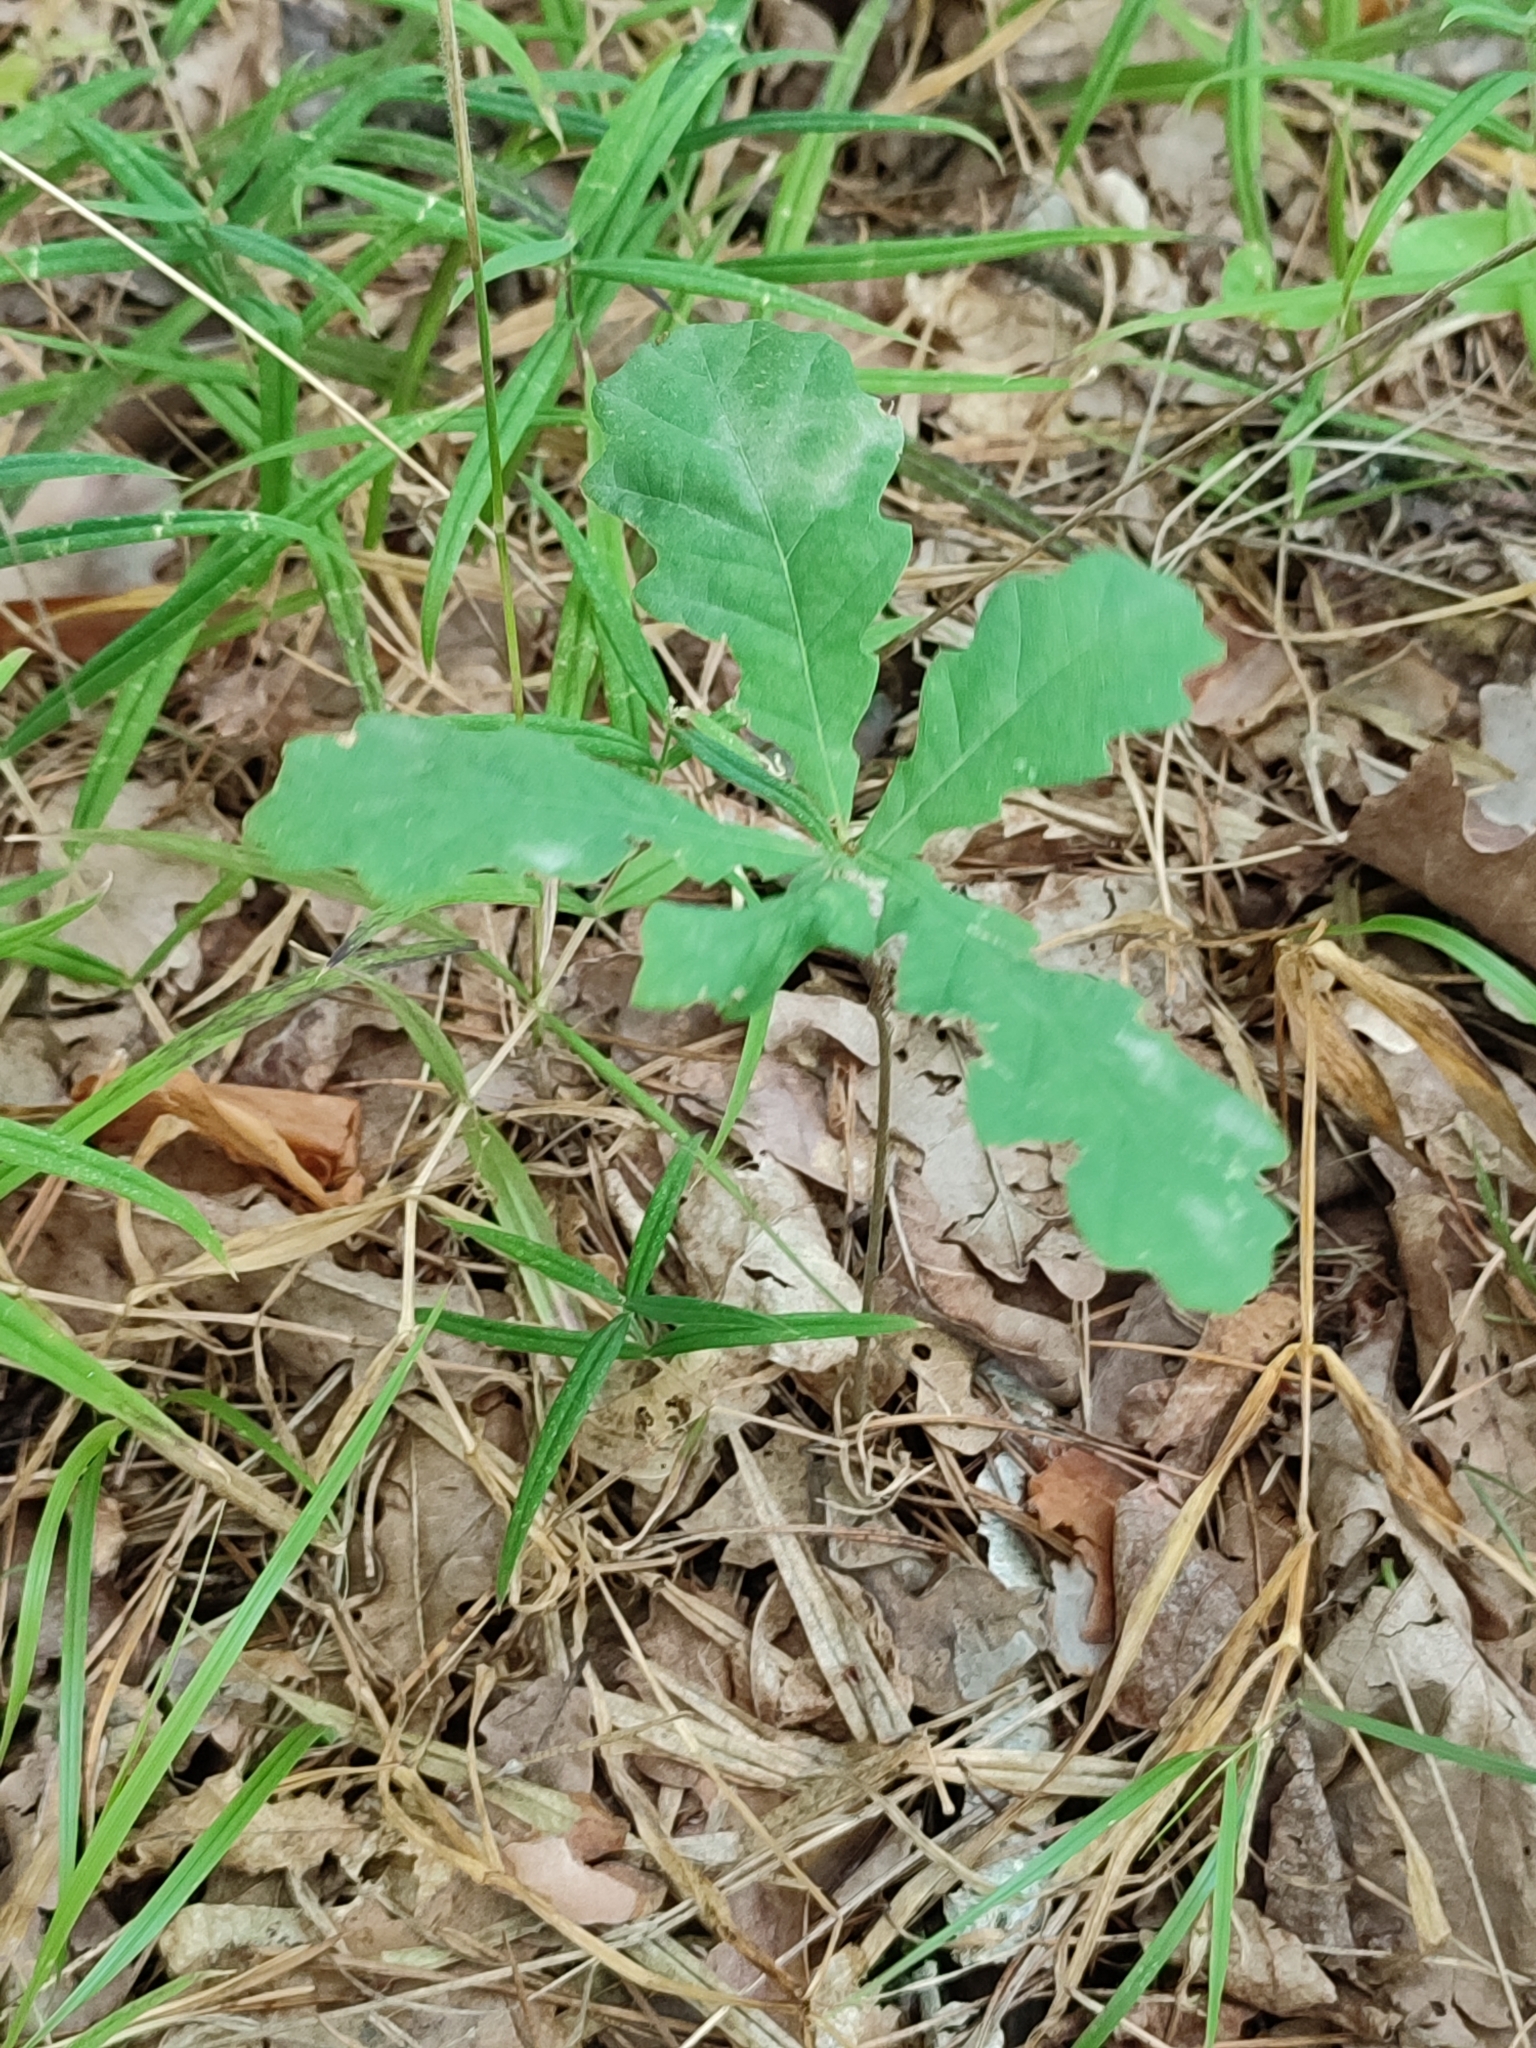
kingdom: Plantae
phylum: Tracheophyta
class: Magnoliopsida
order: Fagales
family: Fagaceae
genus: Quercus
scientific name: Quercus robur
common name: Pedunculate oak
